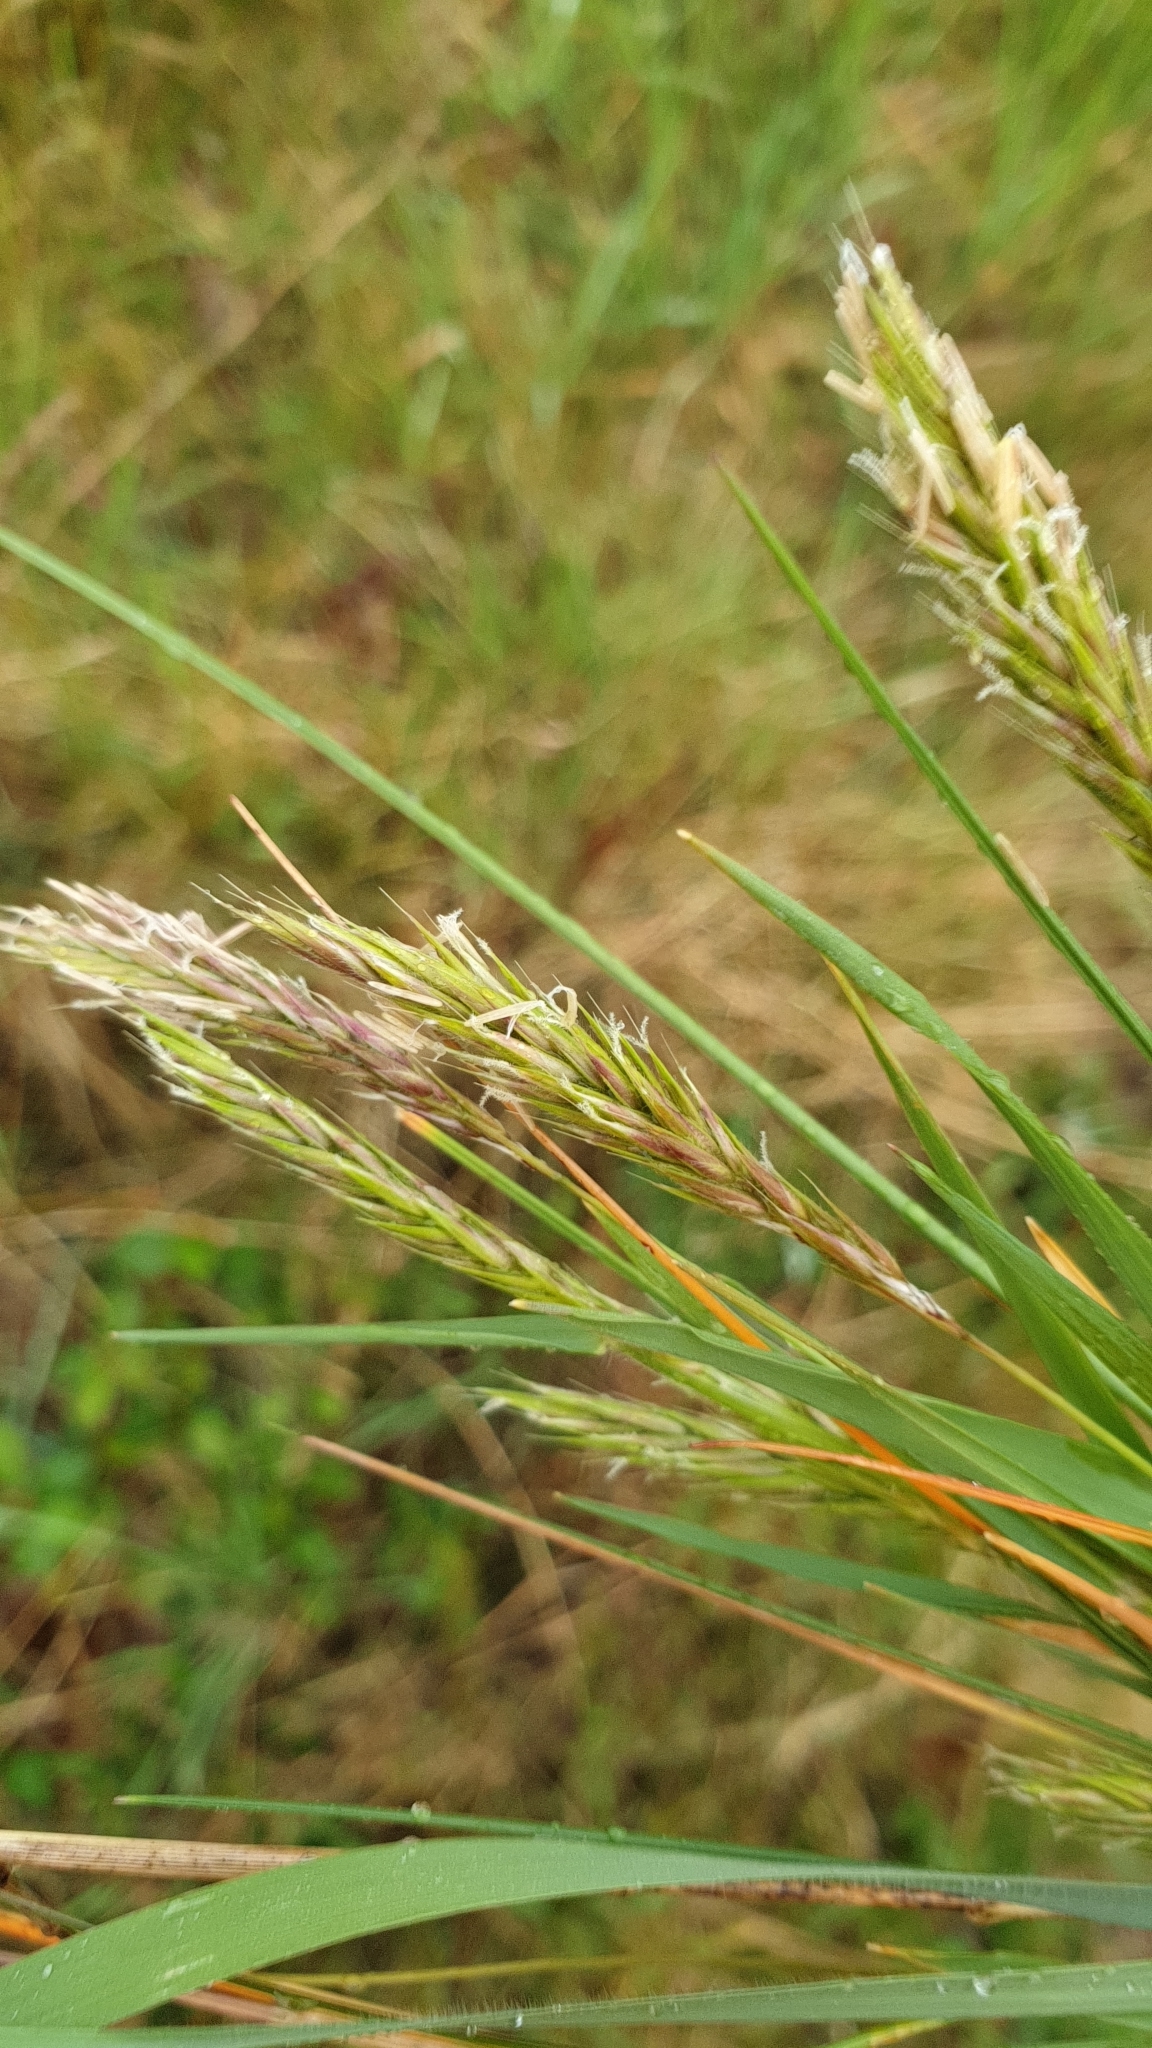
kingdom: Plantae
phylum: Tracheophyta
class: Liliopsida
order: Poales
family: Poaceae
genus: Anthoxanthum
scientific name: Anthoxanthum odoratum
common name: Sweet vernalgrass
